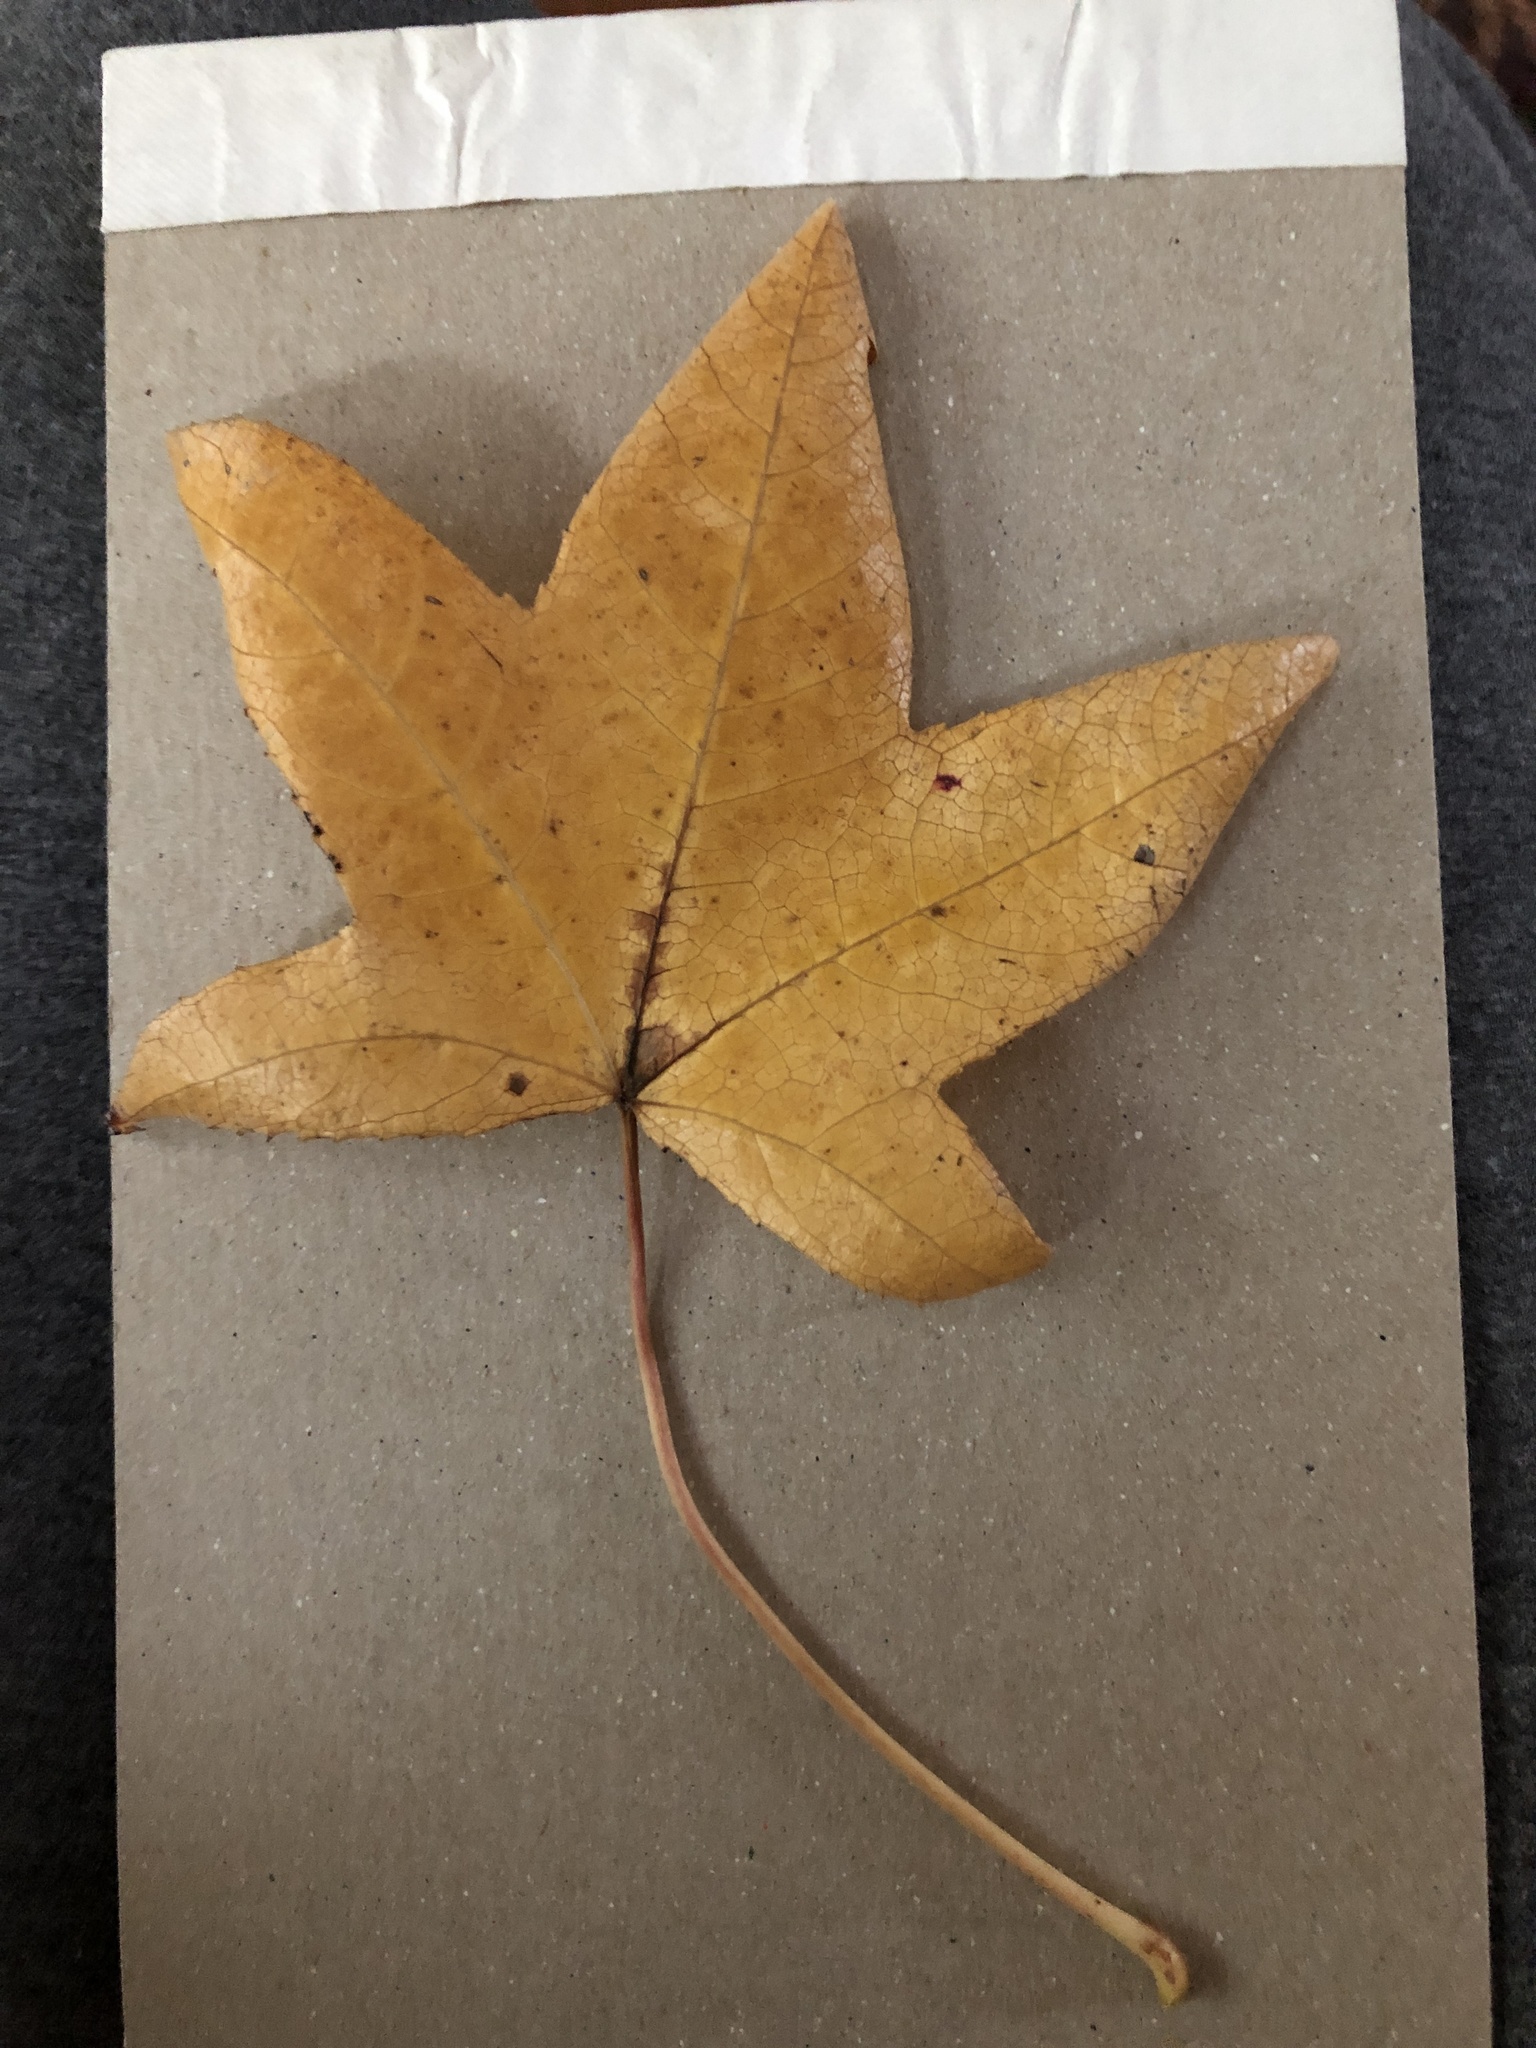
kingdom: Plantae
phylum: Tracheophyta
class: Magnoliopsida
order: Saxifragales
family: Altingiaceae
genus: Liquidambar
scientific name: Liquidambar styraciflua
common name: Sweet gum
